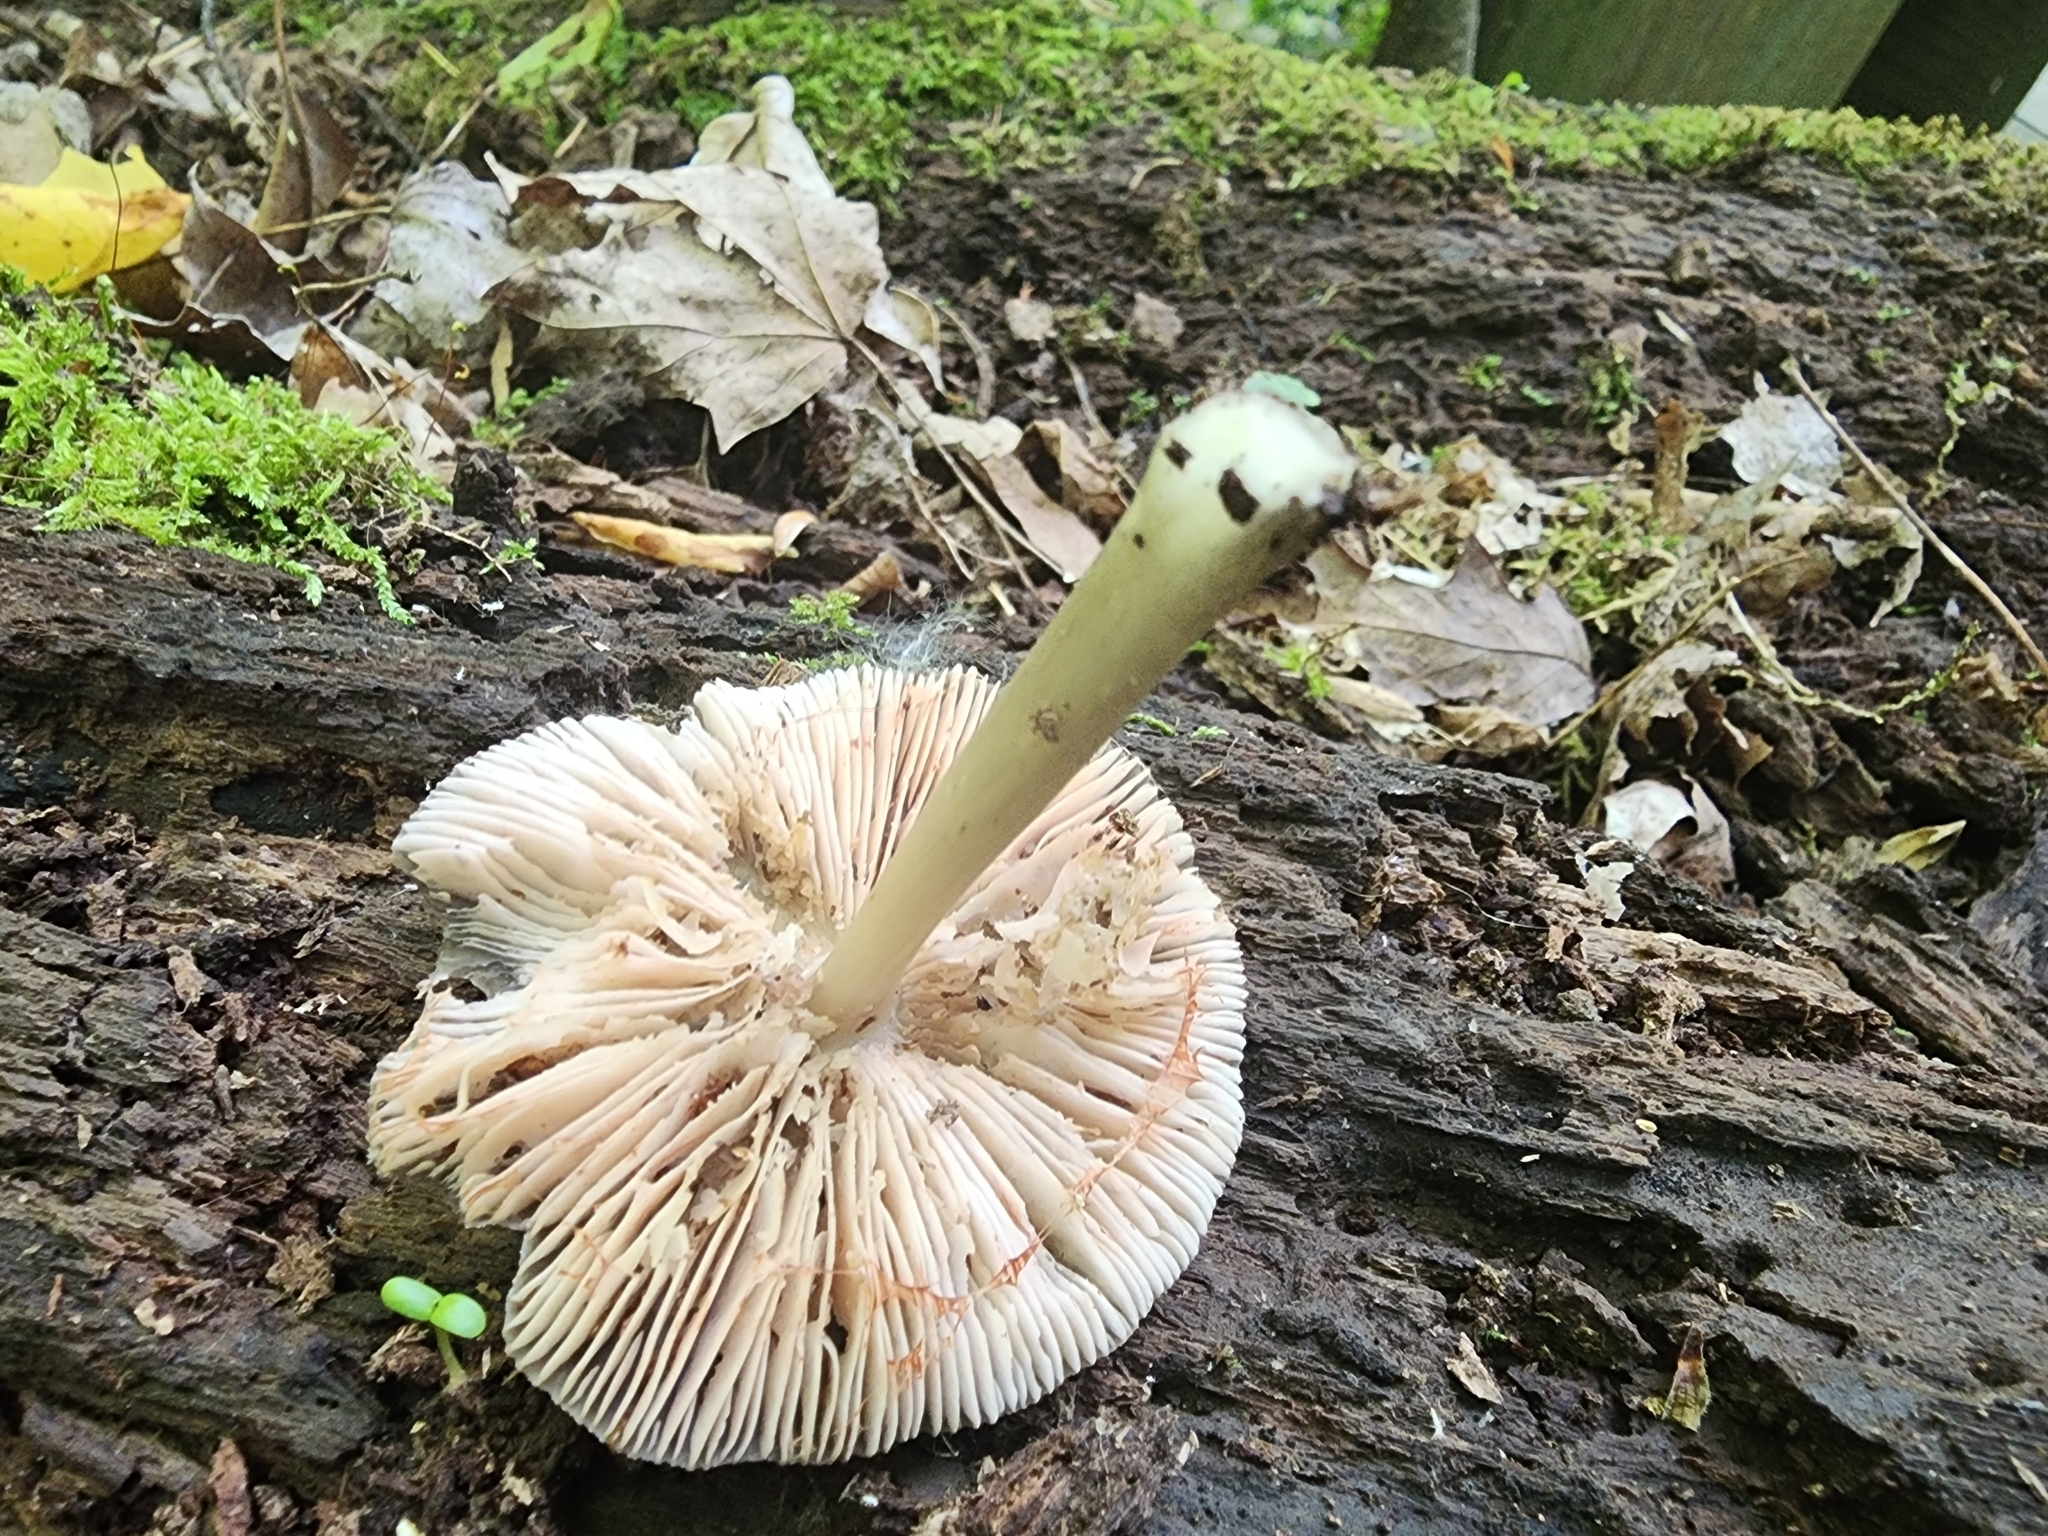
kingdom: Fungi
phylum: Basidiomycota
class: Agaricomycetes
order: Agaricales
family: Pluteaceae
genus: Pluteus
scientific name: Pluteus americanus
